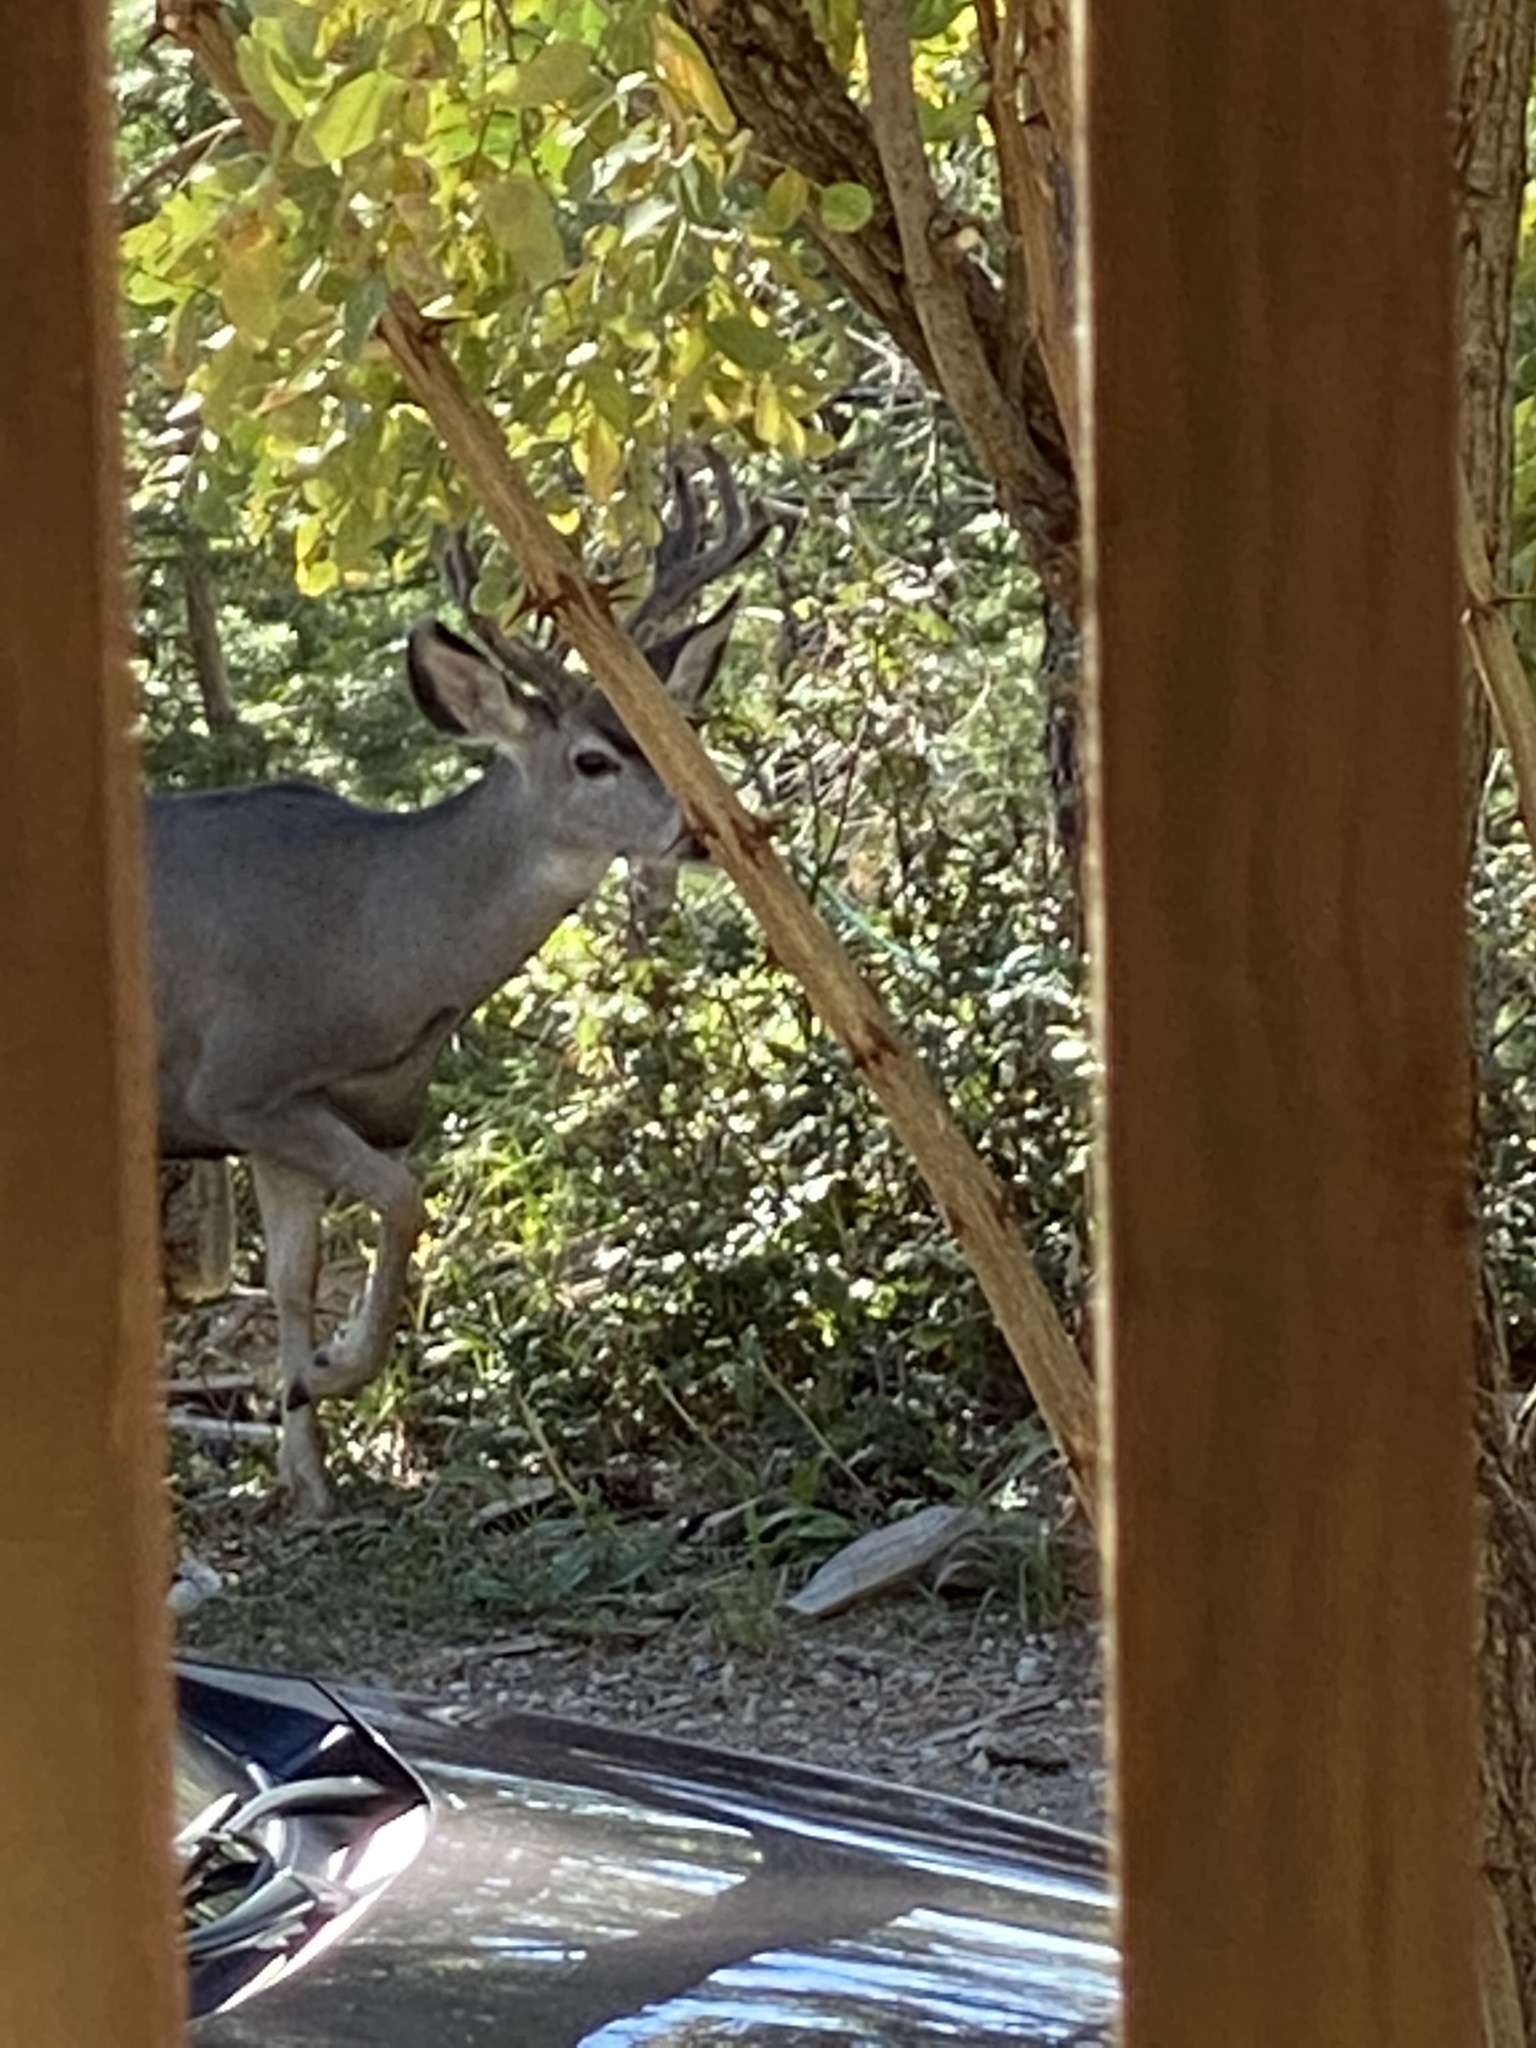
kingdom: Animalia
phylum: Chordata
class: Mammalia
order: Artiodactyla
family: Cervidae
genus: Odocoileus
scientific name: Odocoileus hemionus
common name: Mule deer
